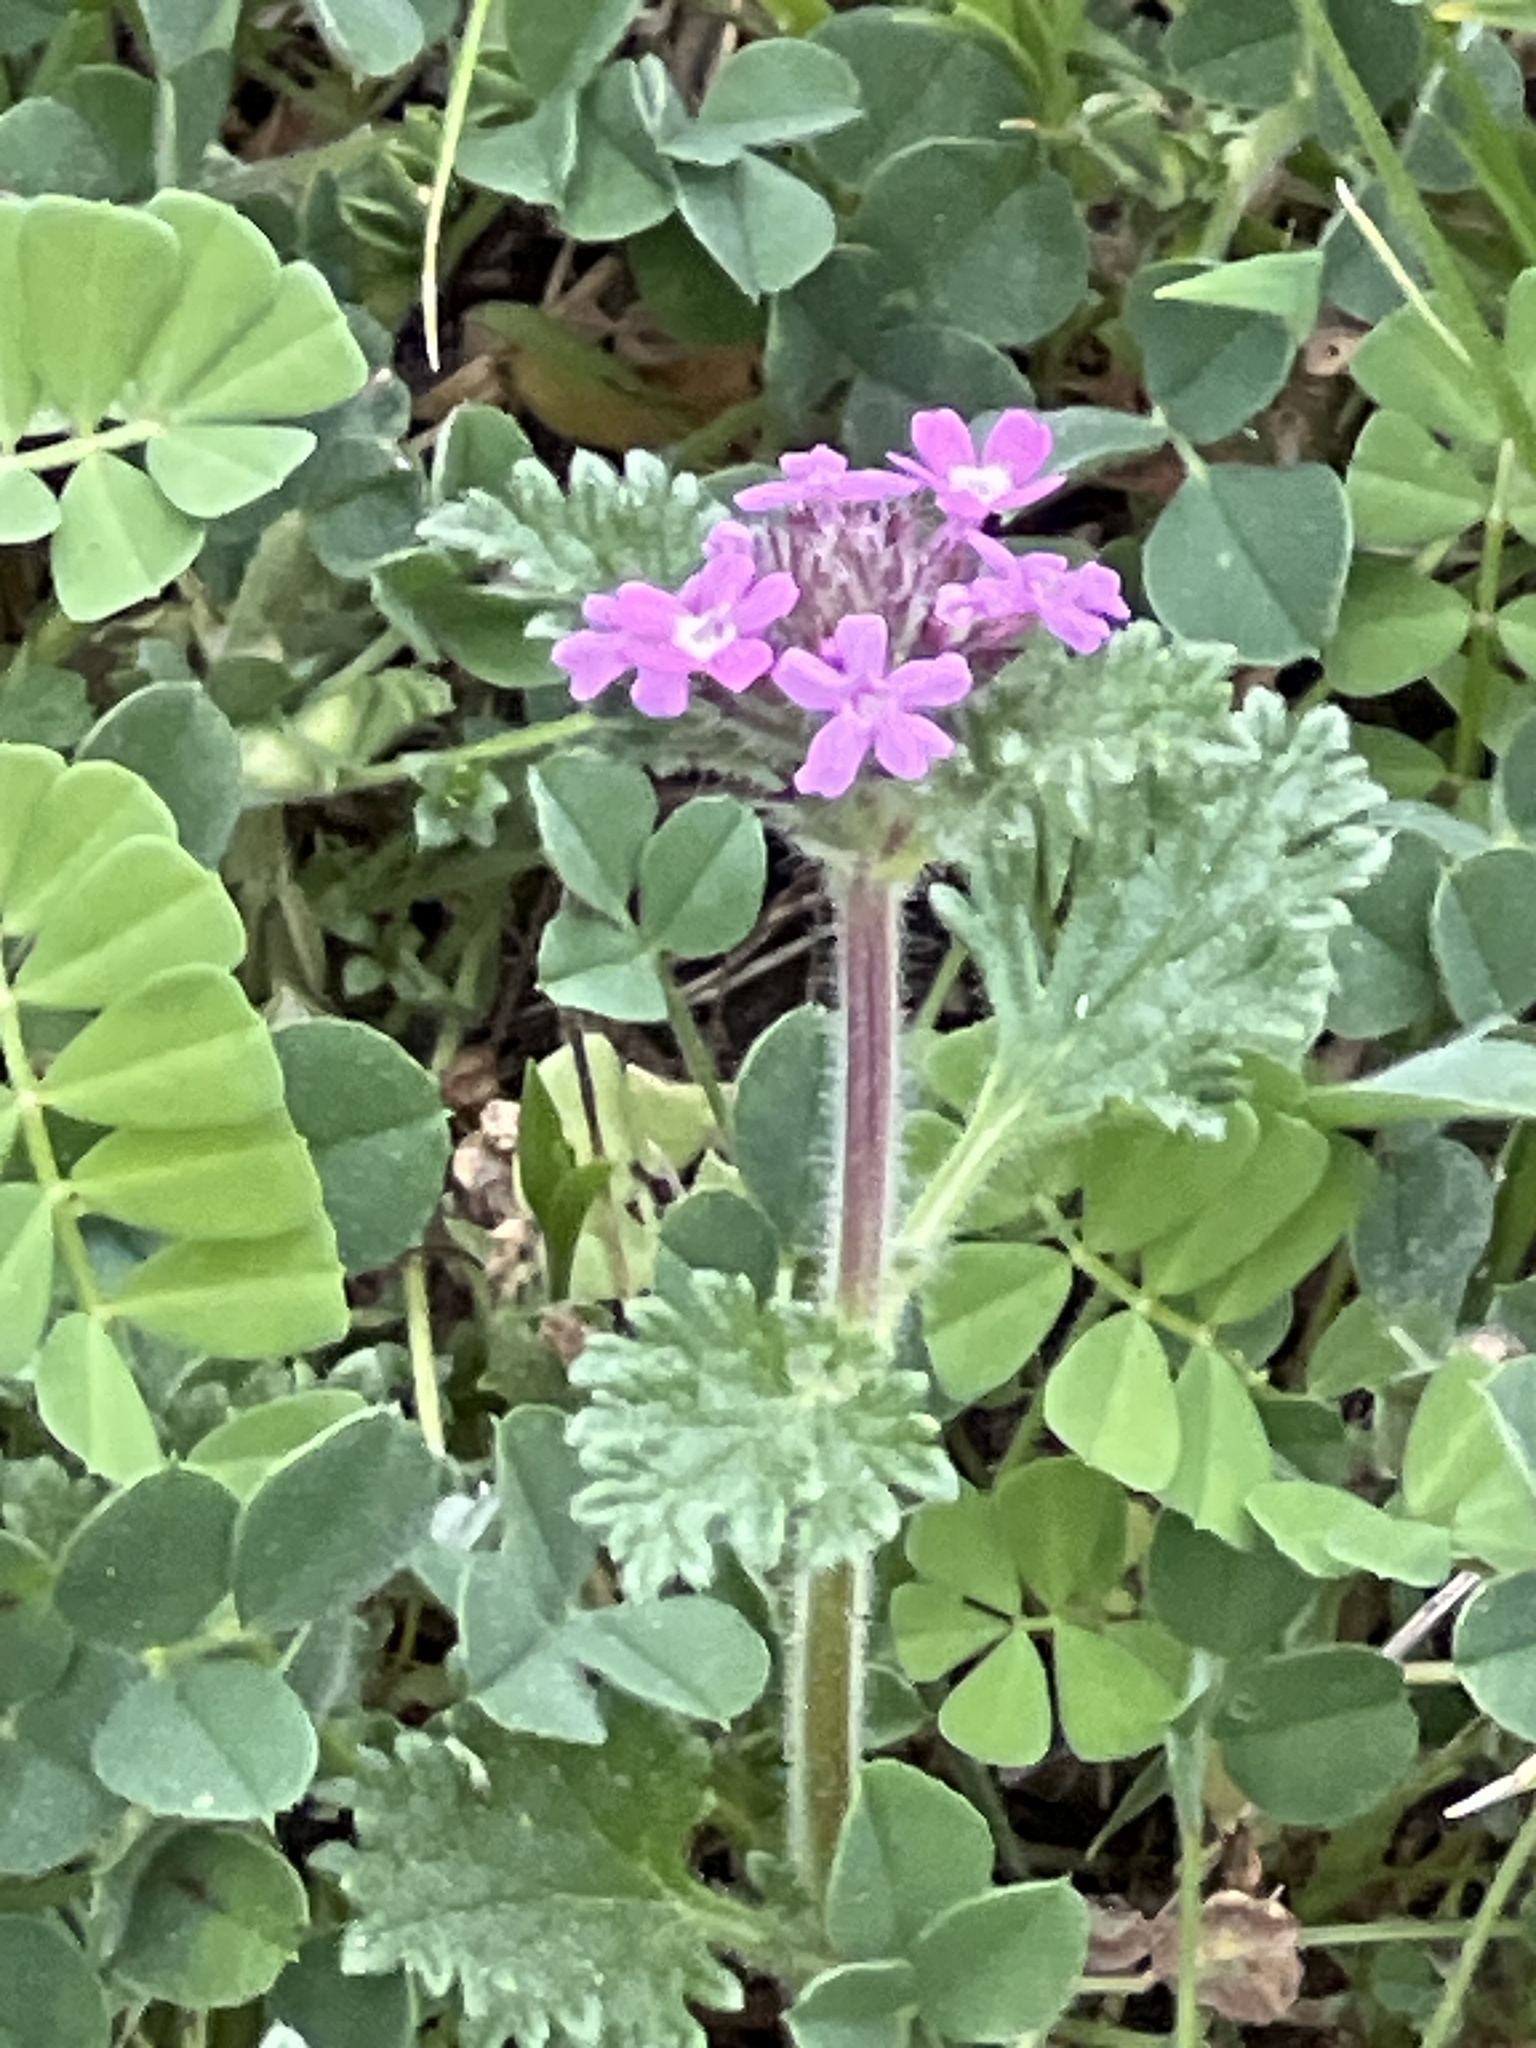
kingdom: Plantae
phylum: Tracheophyta
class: Magnoliopsida
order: Lamiales
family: Verbenaceae
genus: Verbena
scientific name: Verbena pumila
